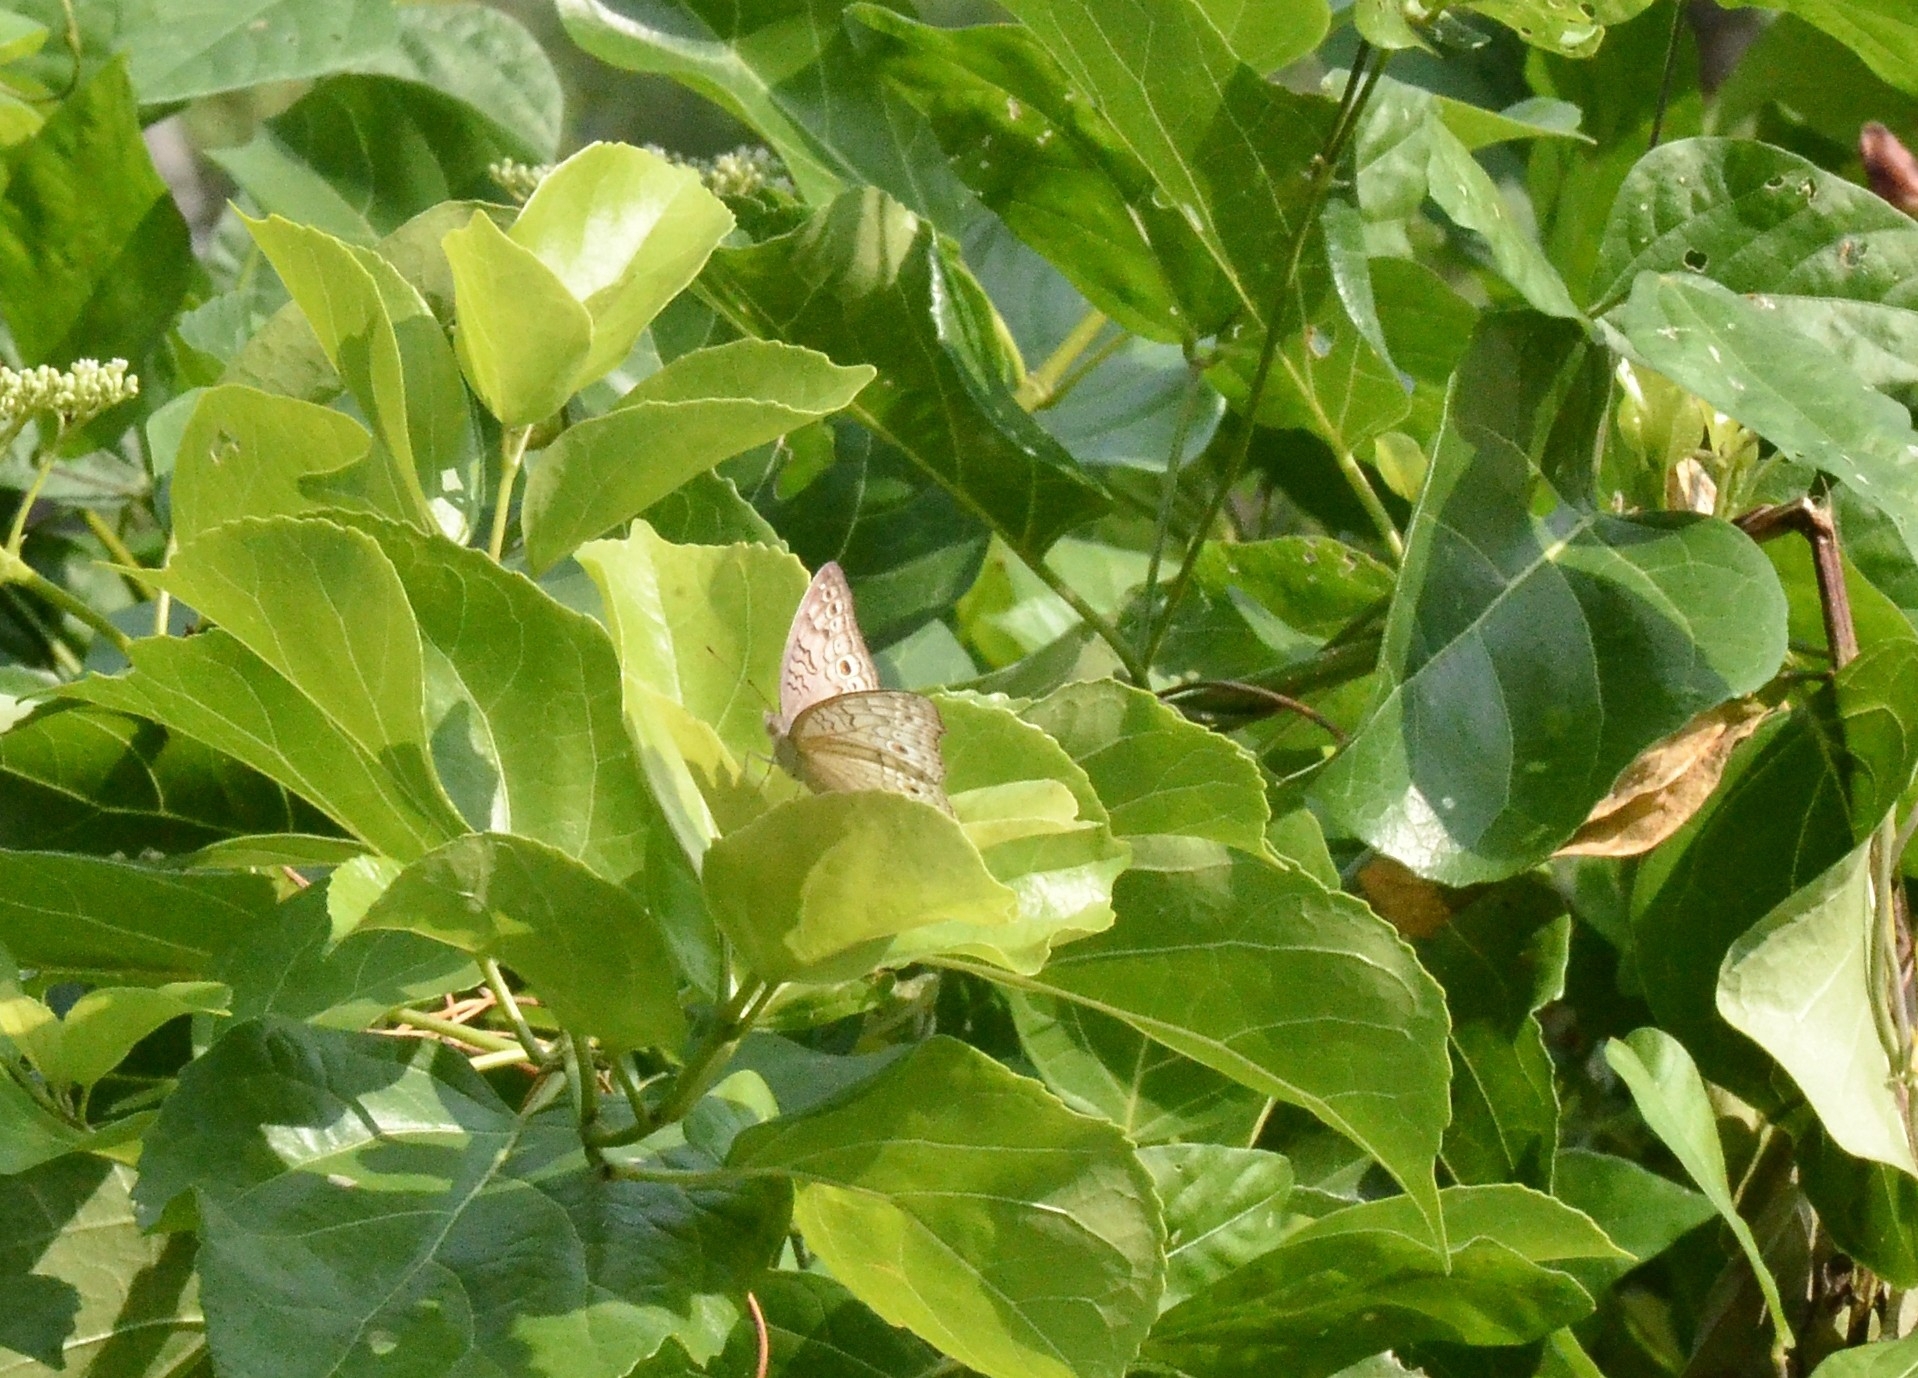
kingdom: Animalia
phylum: Arthropoda
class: Insecta
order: Lepidoptera
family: Nymphalidae
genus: Junonia
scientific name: Junonia atlites
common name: Grey pansy
